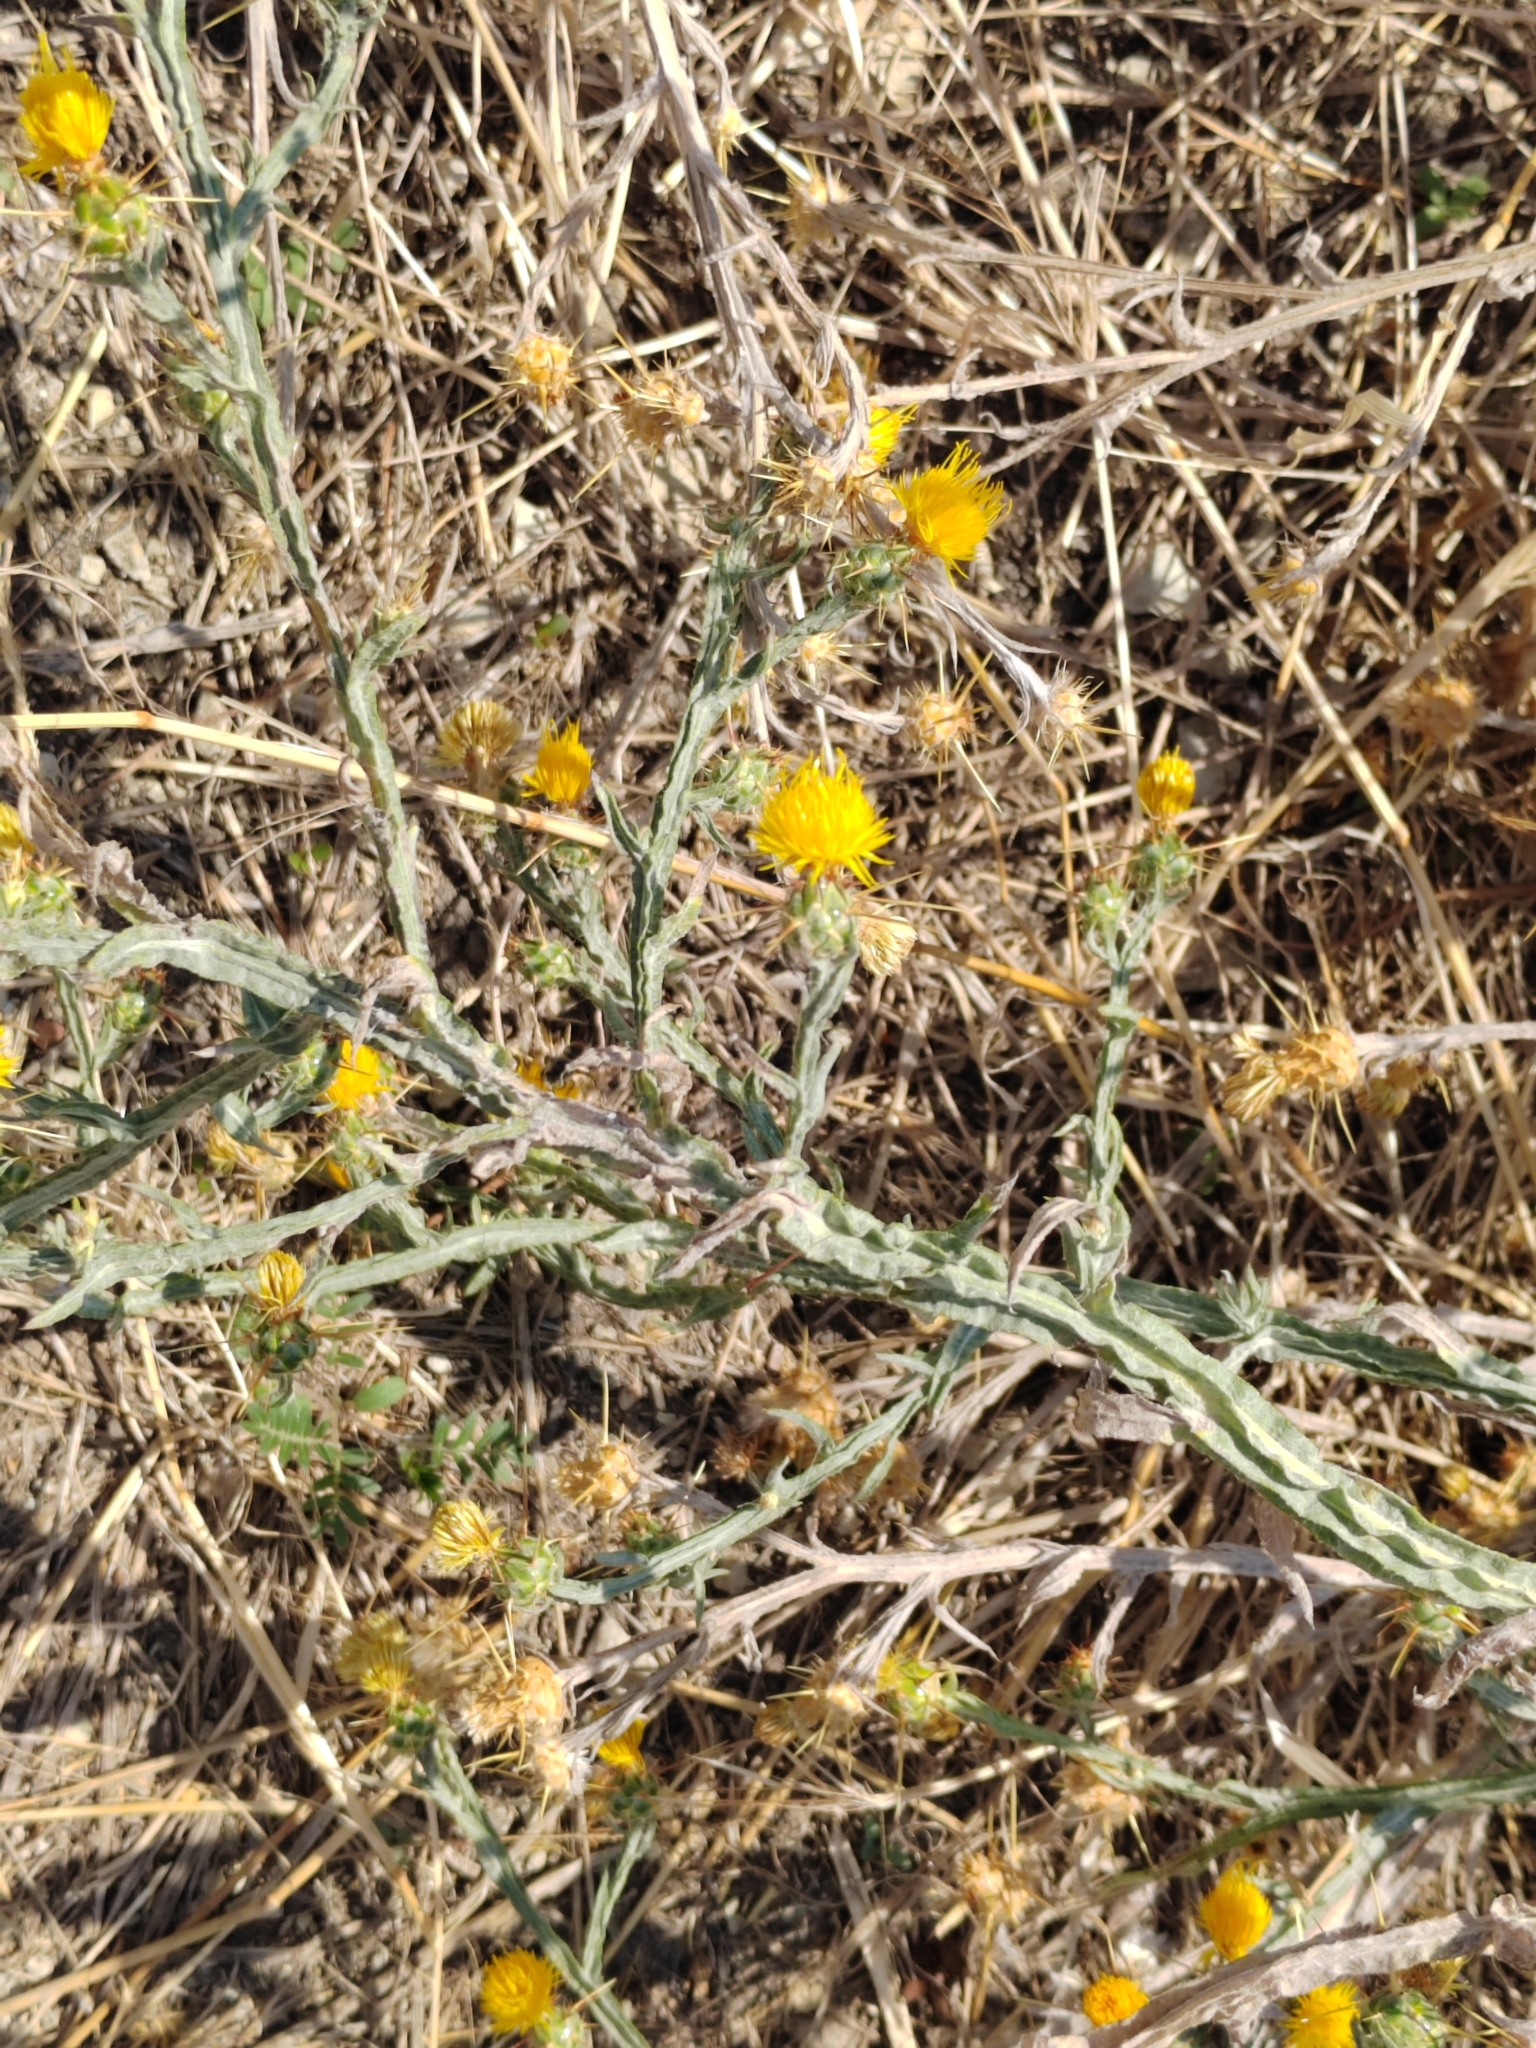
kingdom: Plantae
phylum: Tracheophyta
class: Magnoliopsida
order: Asterales
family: Asteraceae
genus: Centaurea
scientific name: Centaurea solstitialis
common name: Yellow star-thistle
